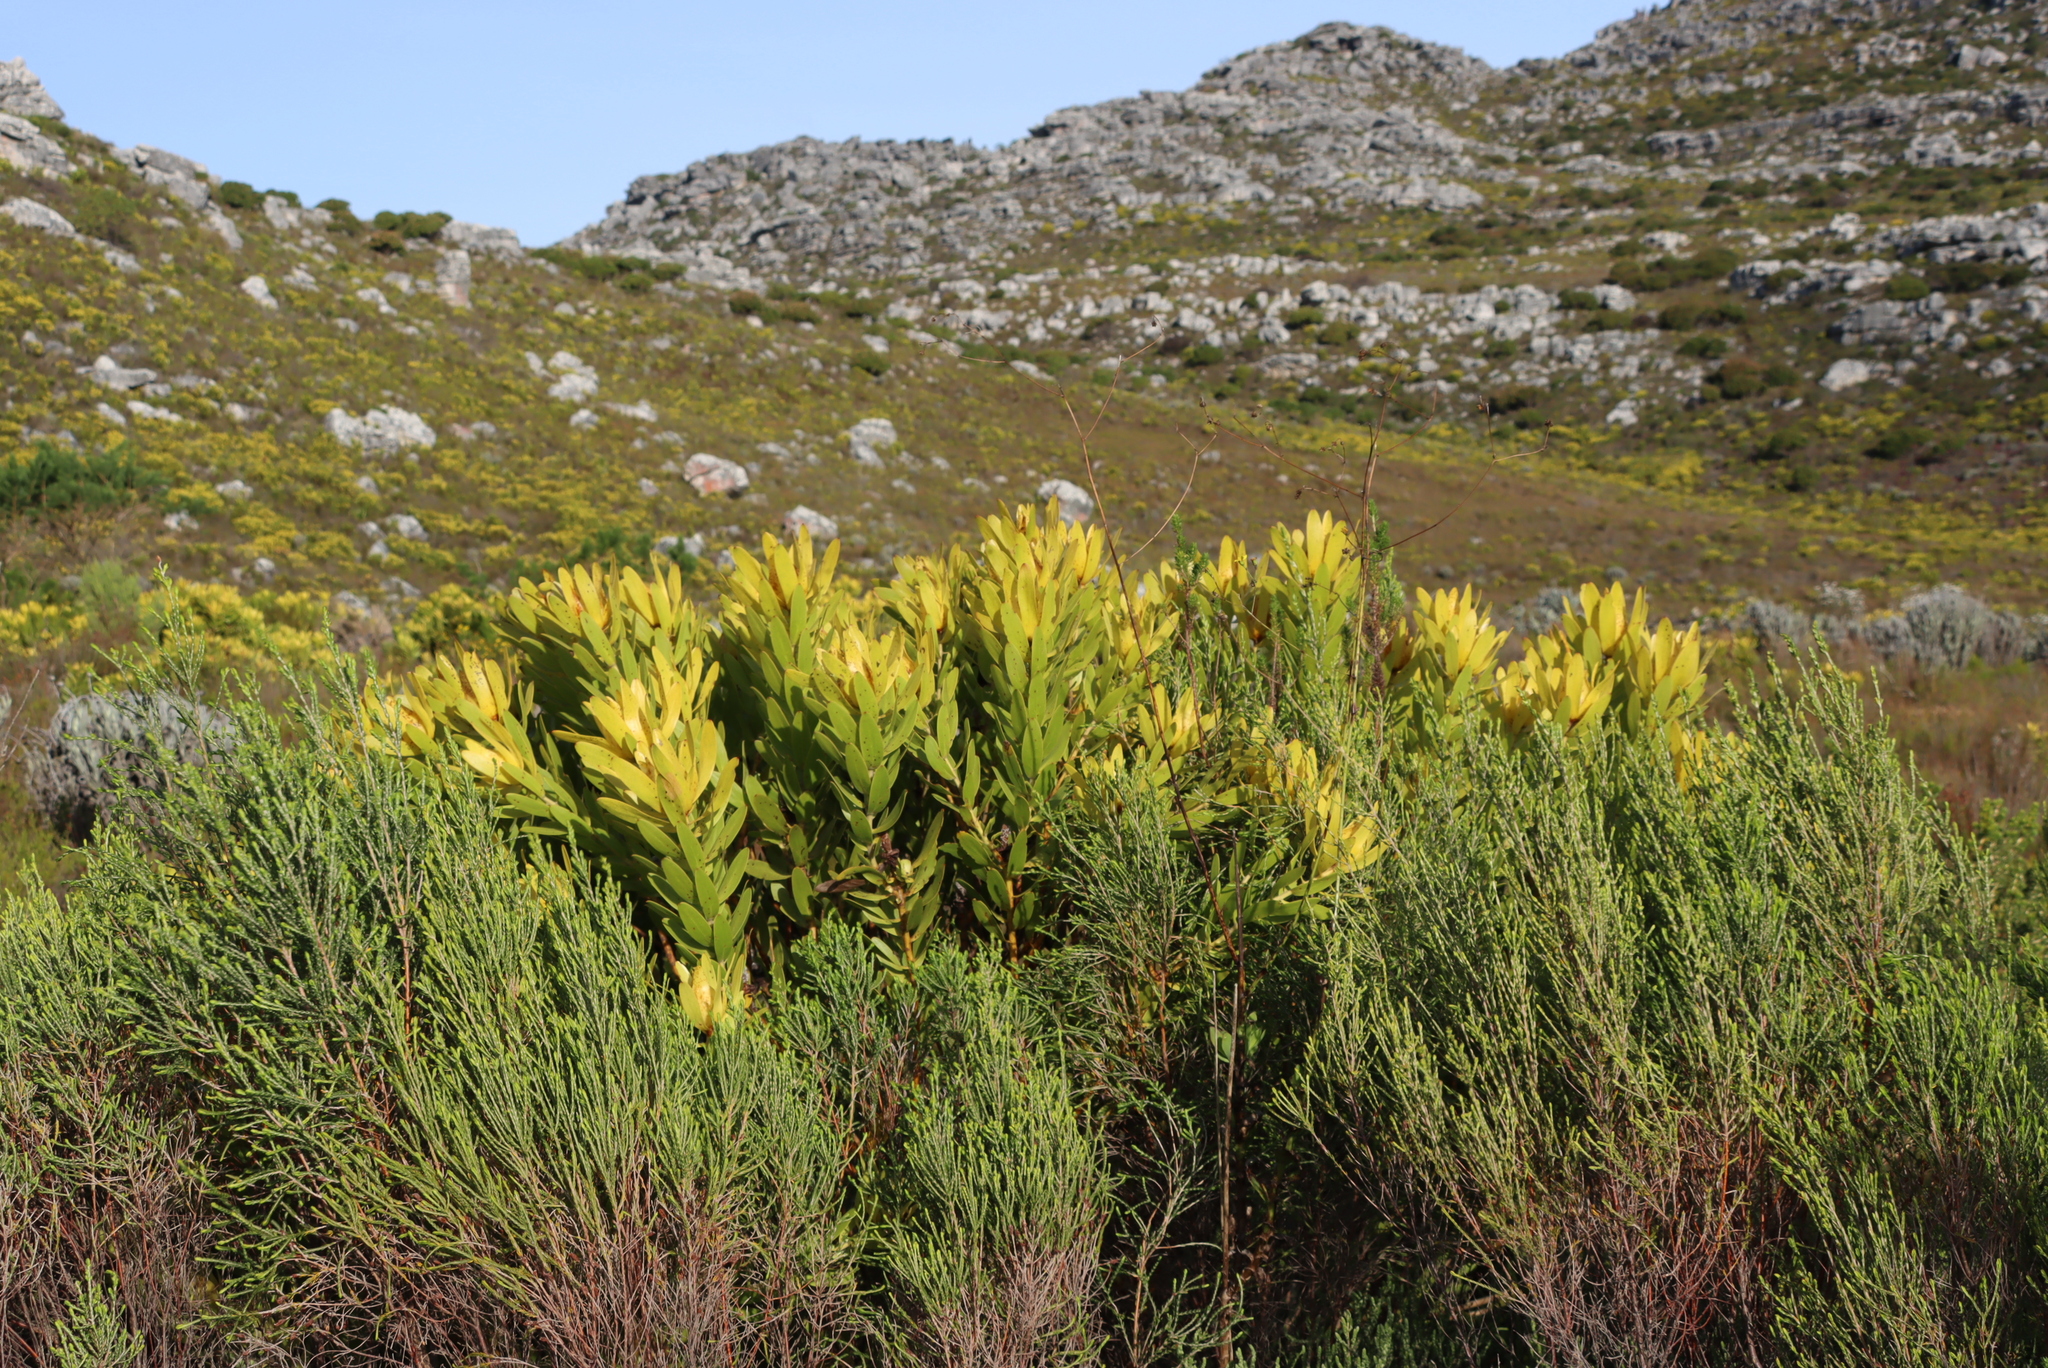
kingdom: Plantae
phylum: Tracheophyta
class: Magnoliopsida
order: Proteales
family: Proteaceae
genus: Leucadendron
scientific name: Leucadendron laureolum
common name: Golden sunshinebush
